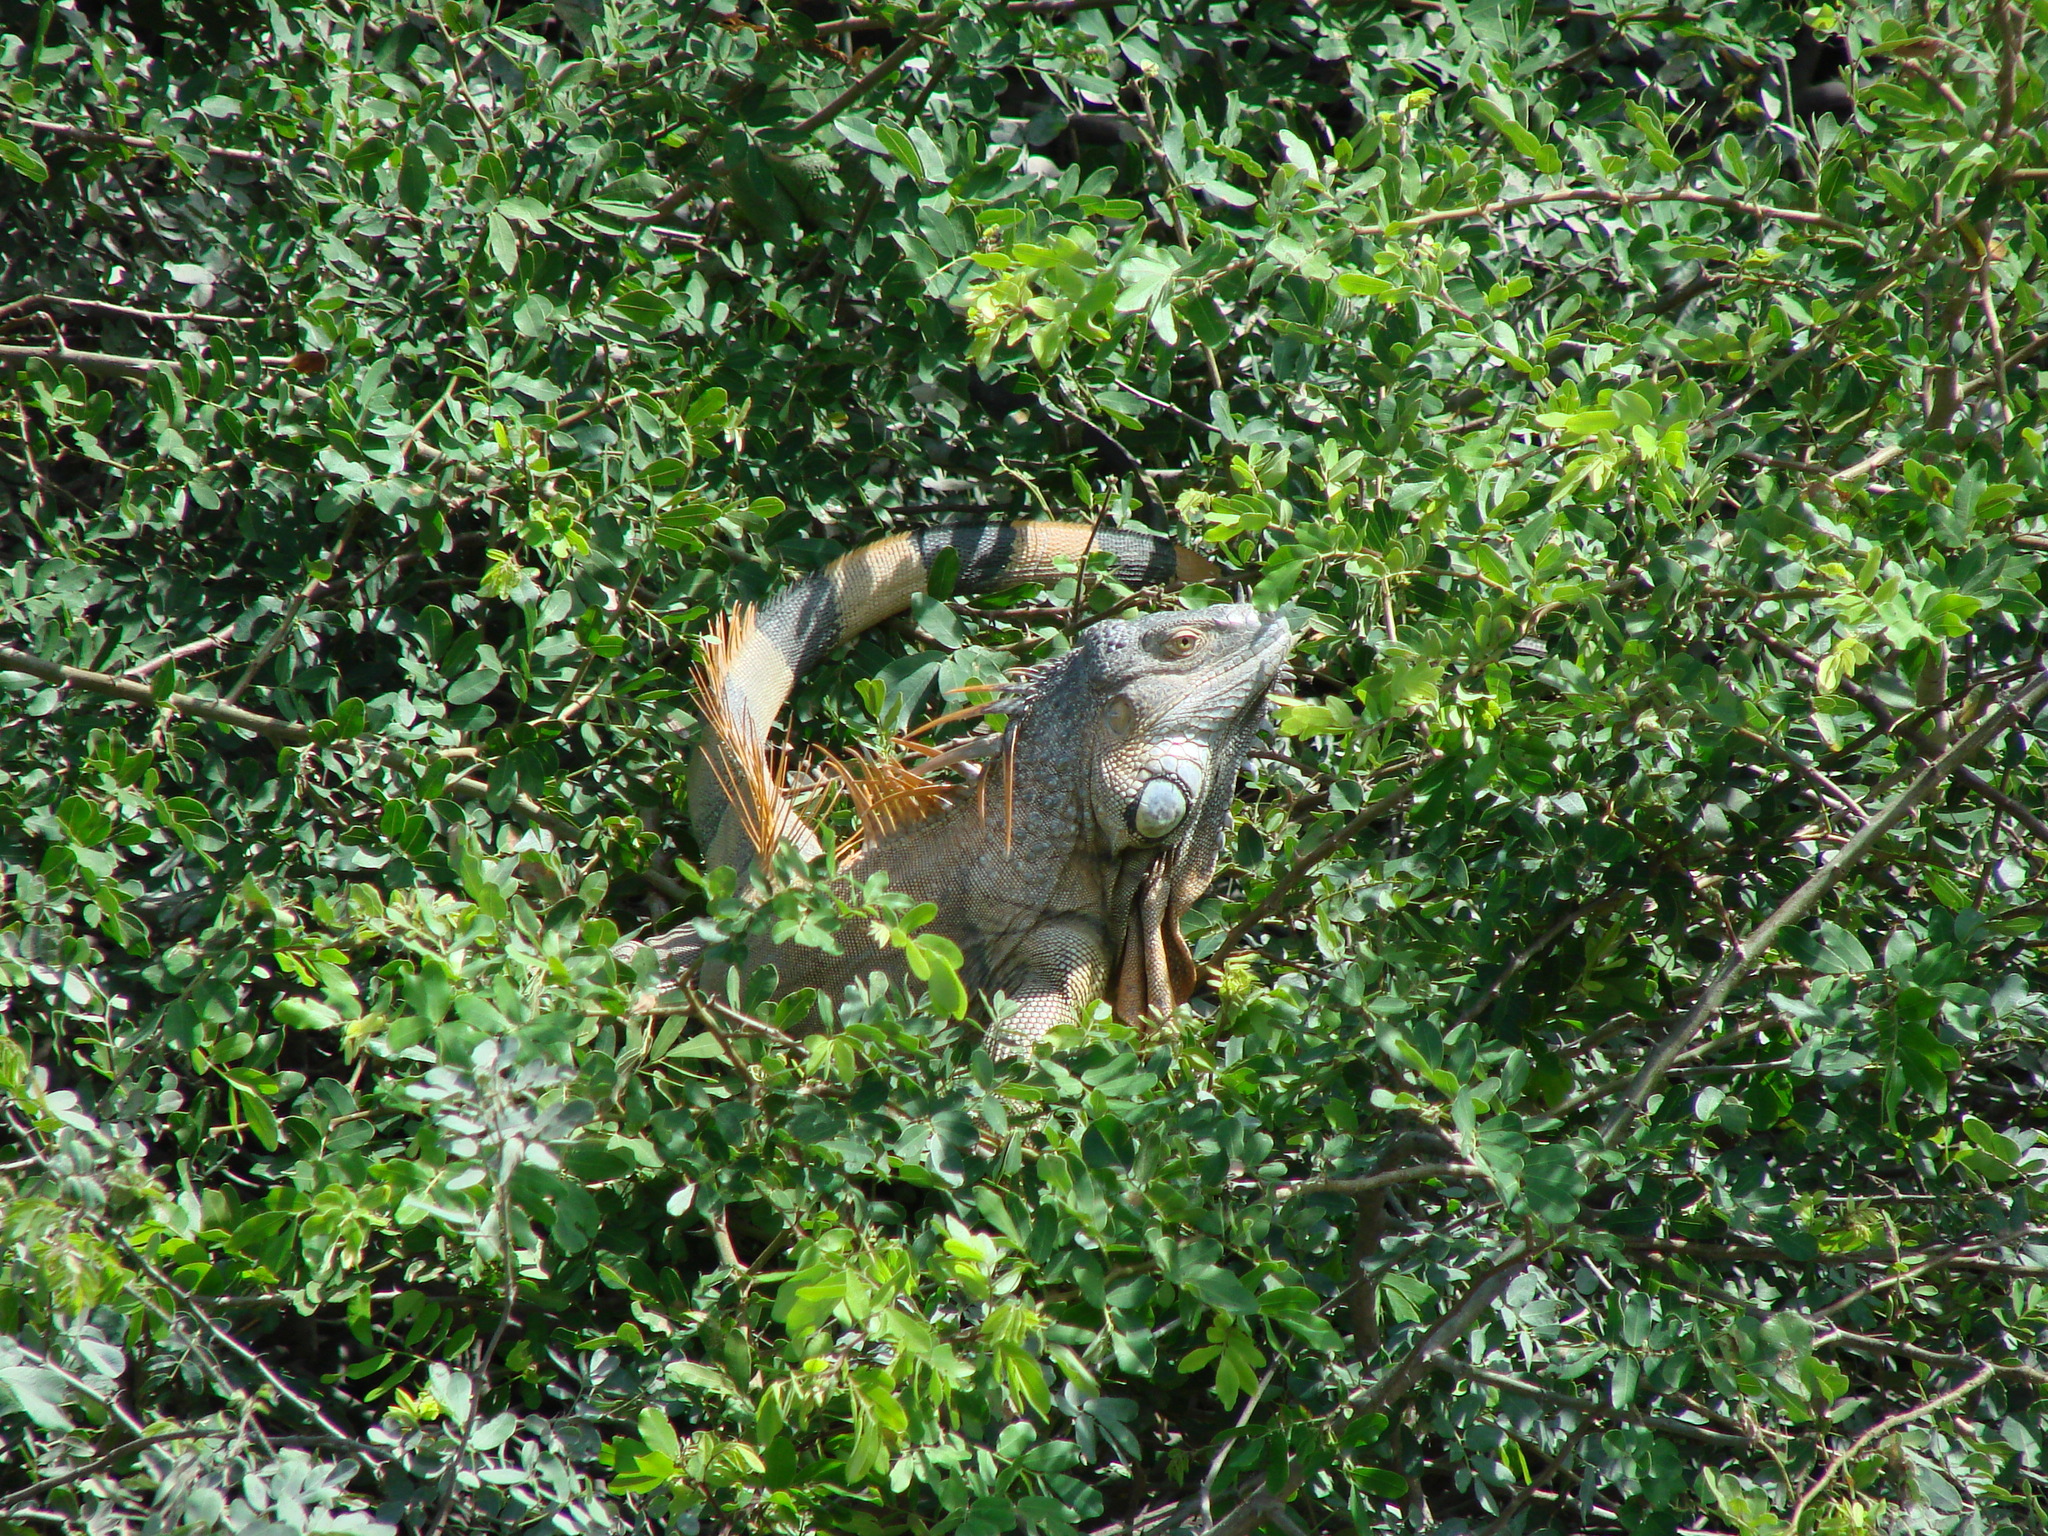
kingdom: Animalia
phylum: Chordata
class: Squamata
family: Iguanidae
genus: Iguana
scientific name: Iguana iguana
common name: Green iguana
